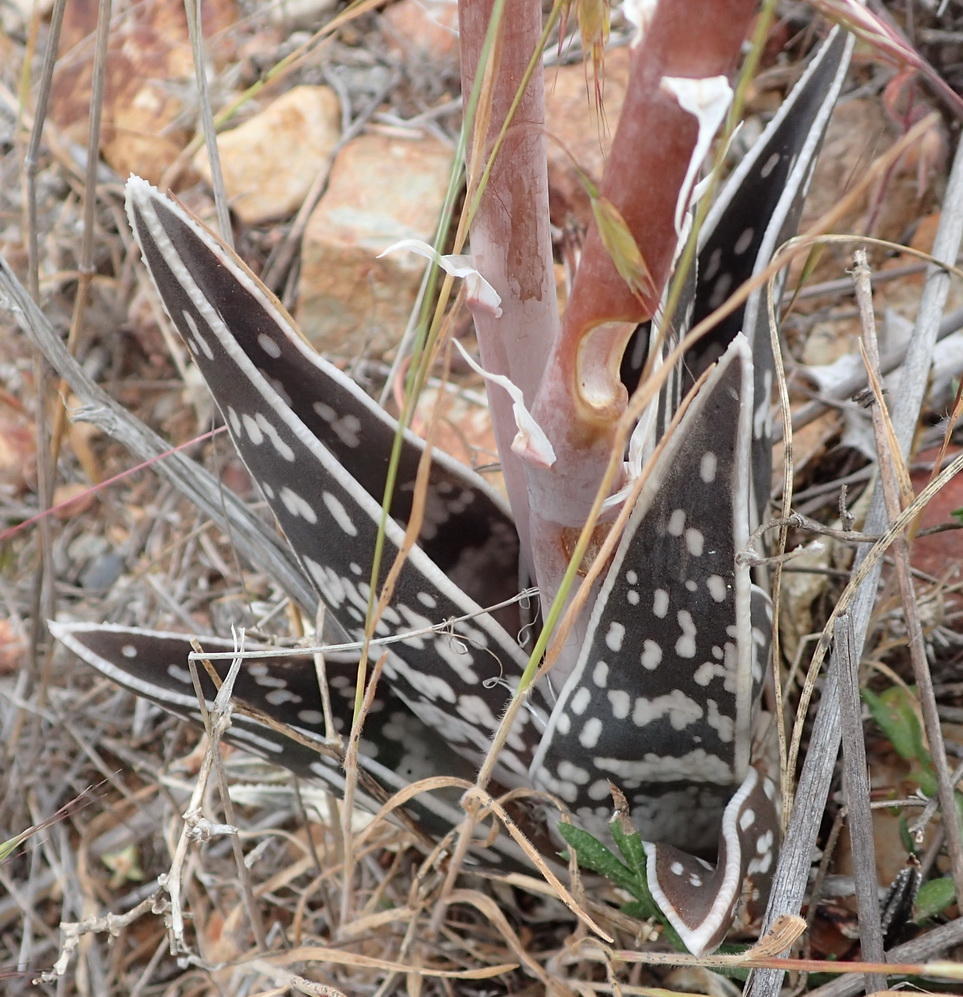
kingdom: Plantae
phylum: Tracheophyta
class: Liliopsida
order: Asparagales
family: Asphodelaceae
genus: Gonialoe
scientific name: Gonialoe variegata
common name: Aloe variegata
